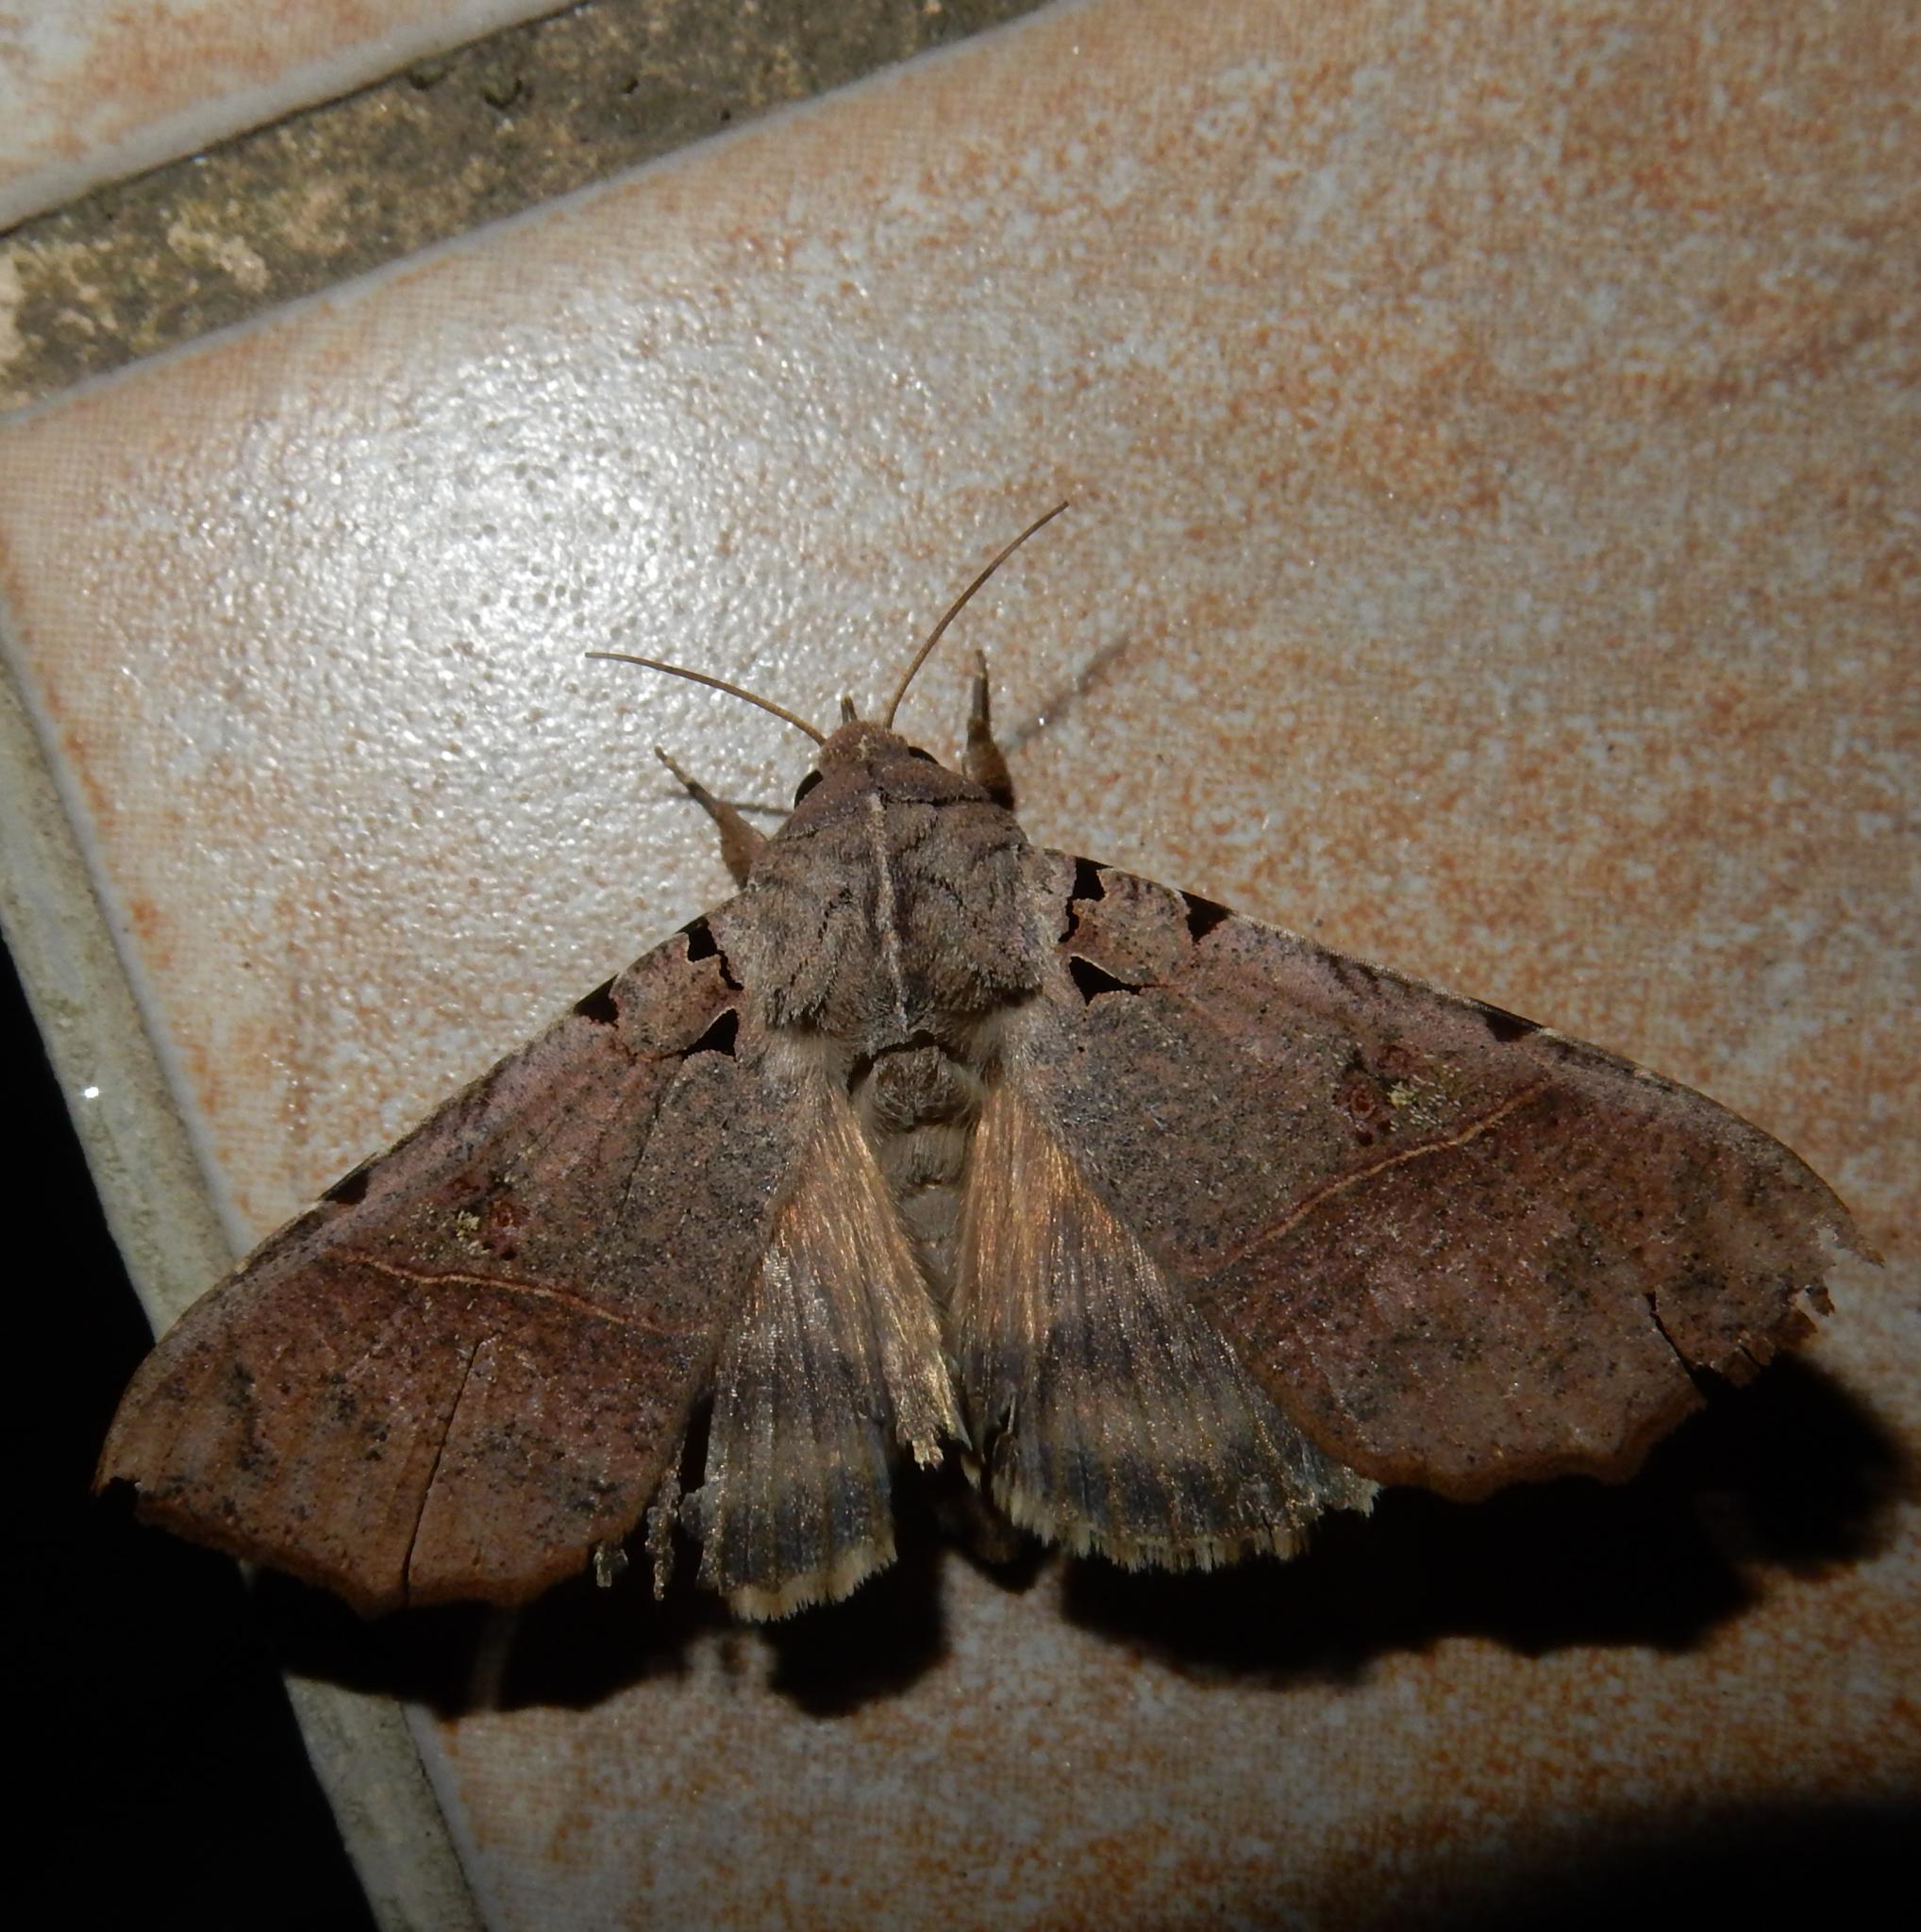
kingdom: Animalia
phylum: Arthropoda
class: Insecta
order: Lepidoptera
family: Erebidae
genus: Serrodes
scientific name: Serrodes campana
